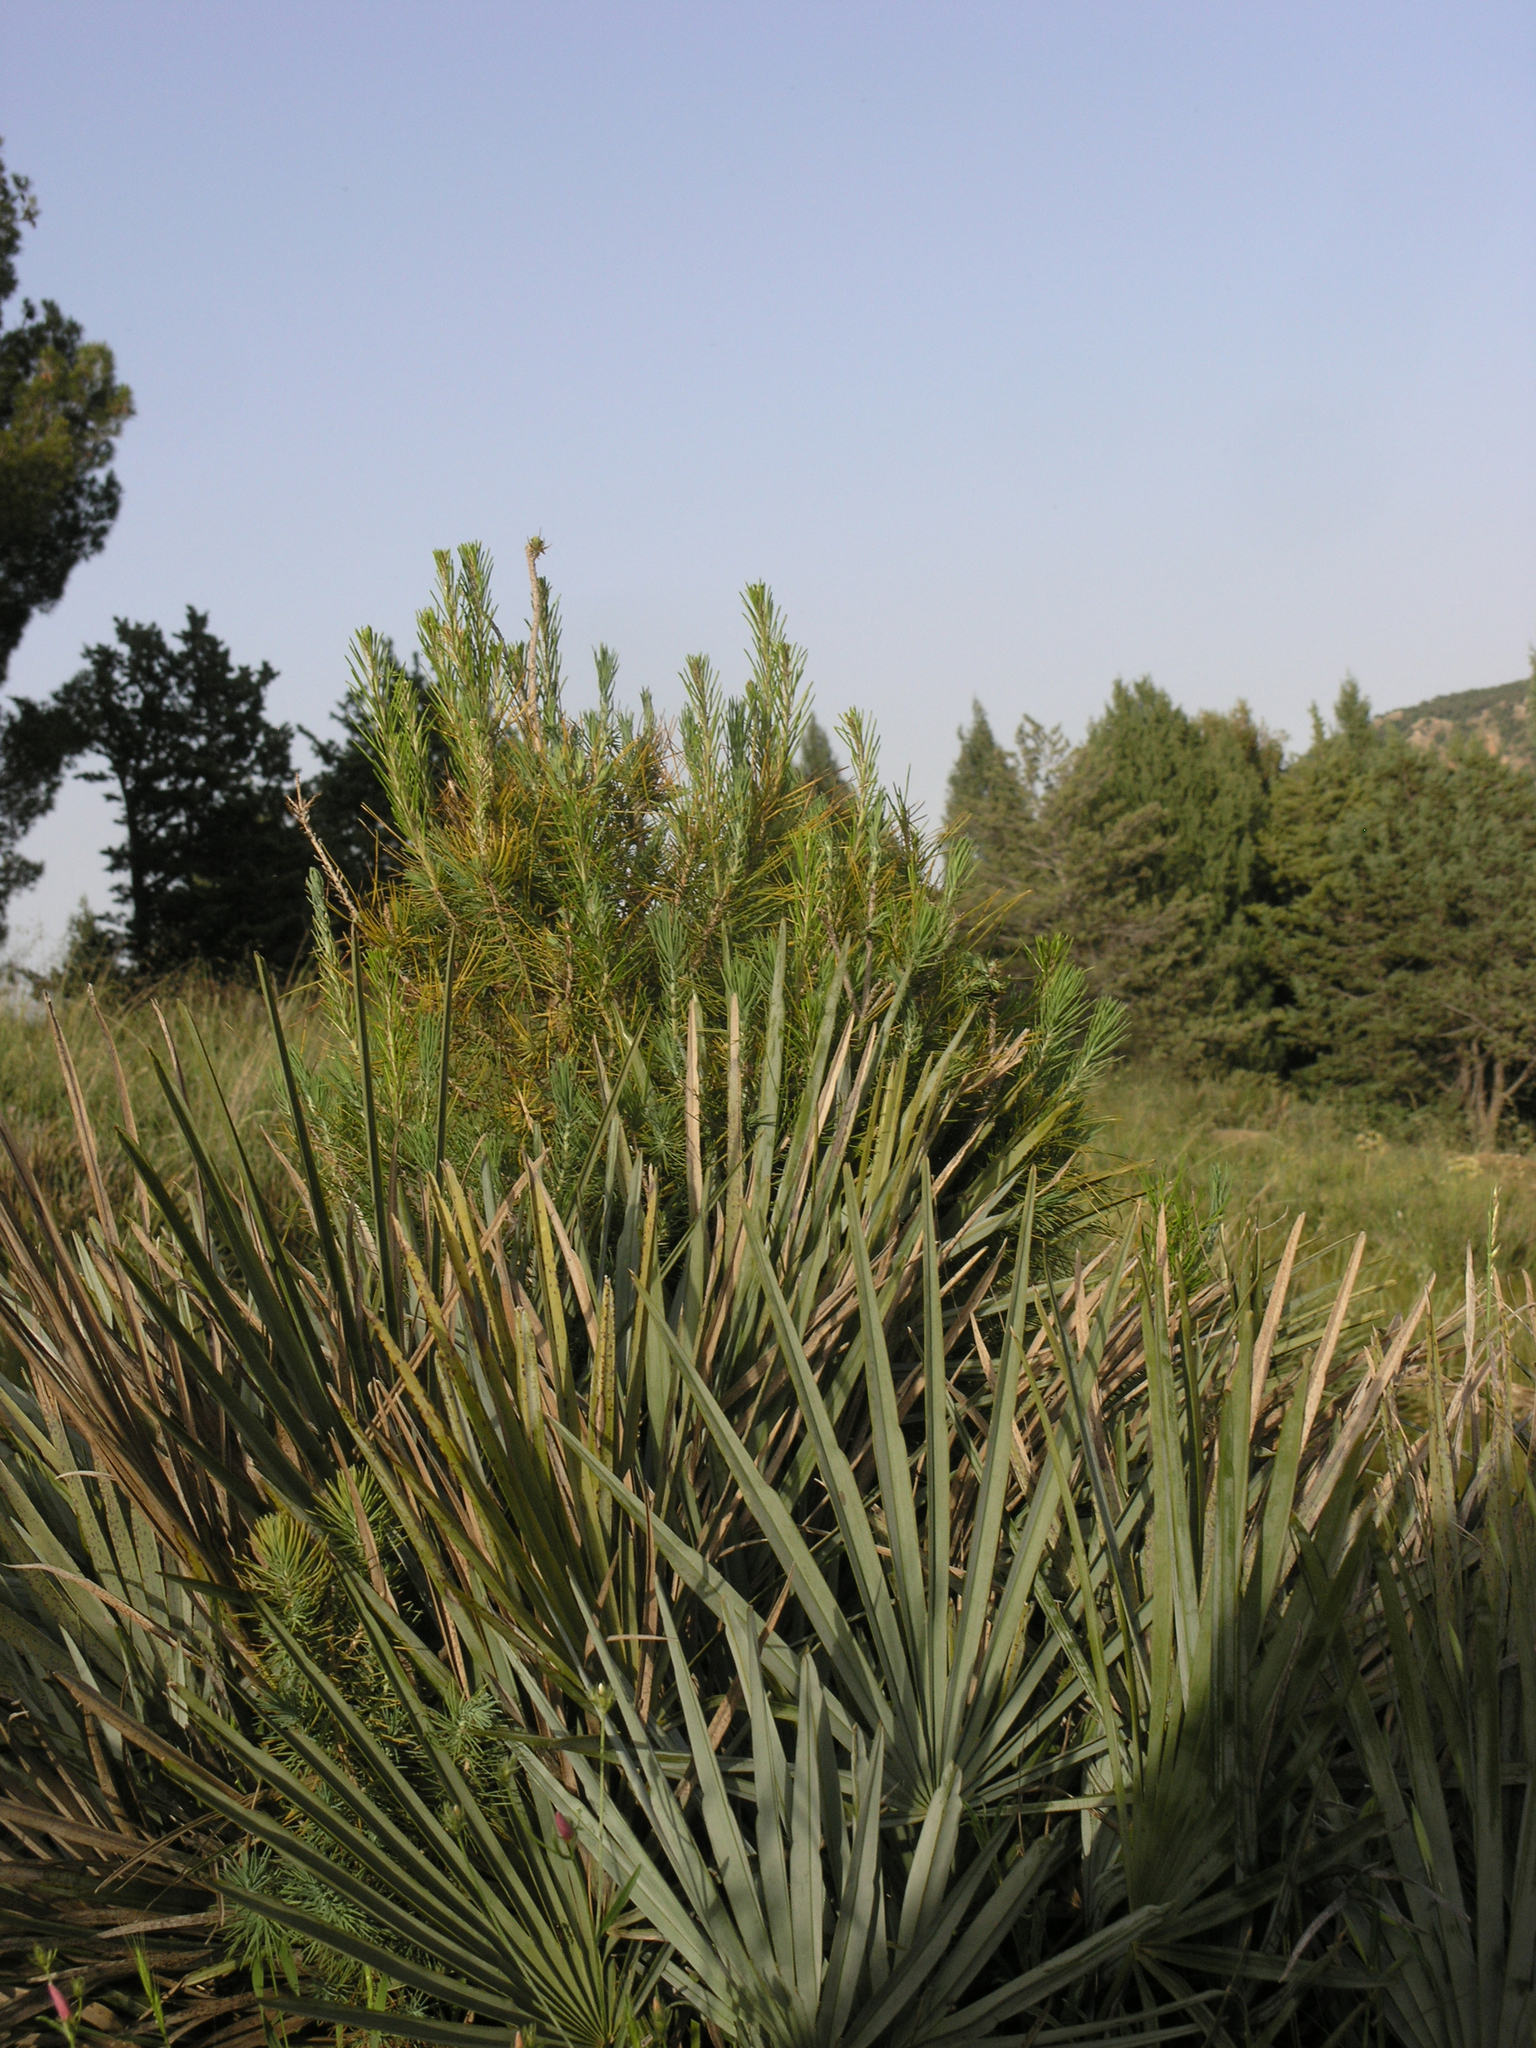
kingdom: Plantae
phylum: Tracheophyta
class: Liliopsida
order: Arecales
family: Arecaceae
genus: Chamaerops
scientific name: Chamaerops humilis
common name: Dwarf fan palm
